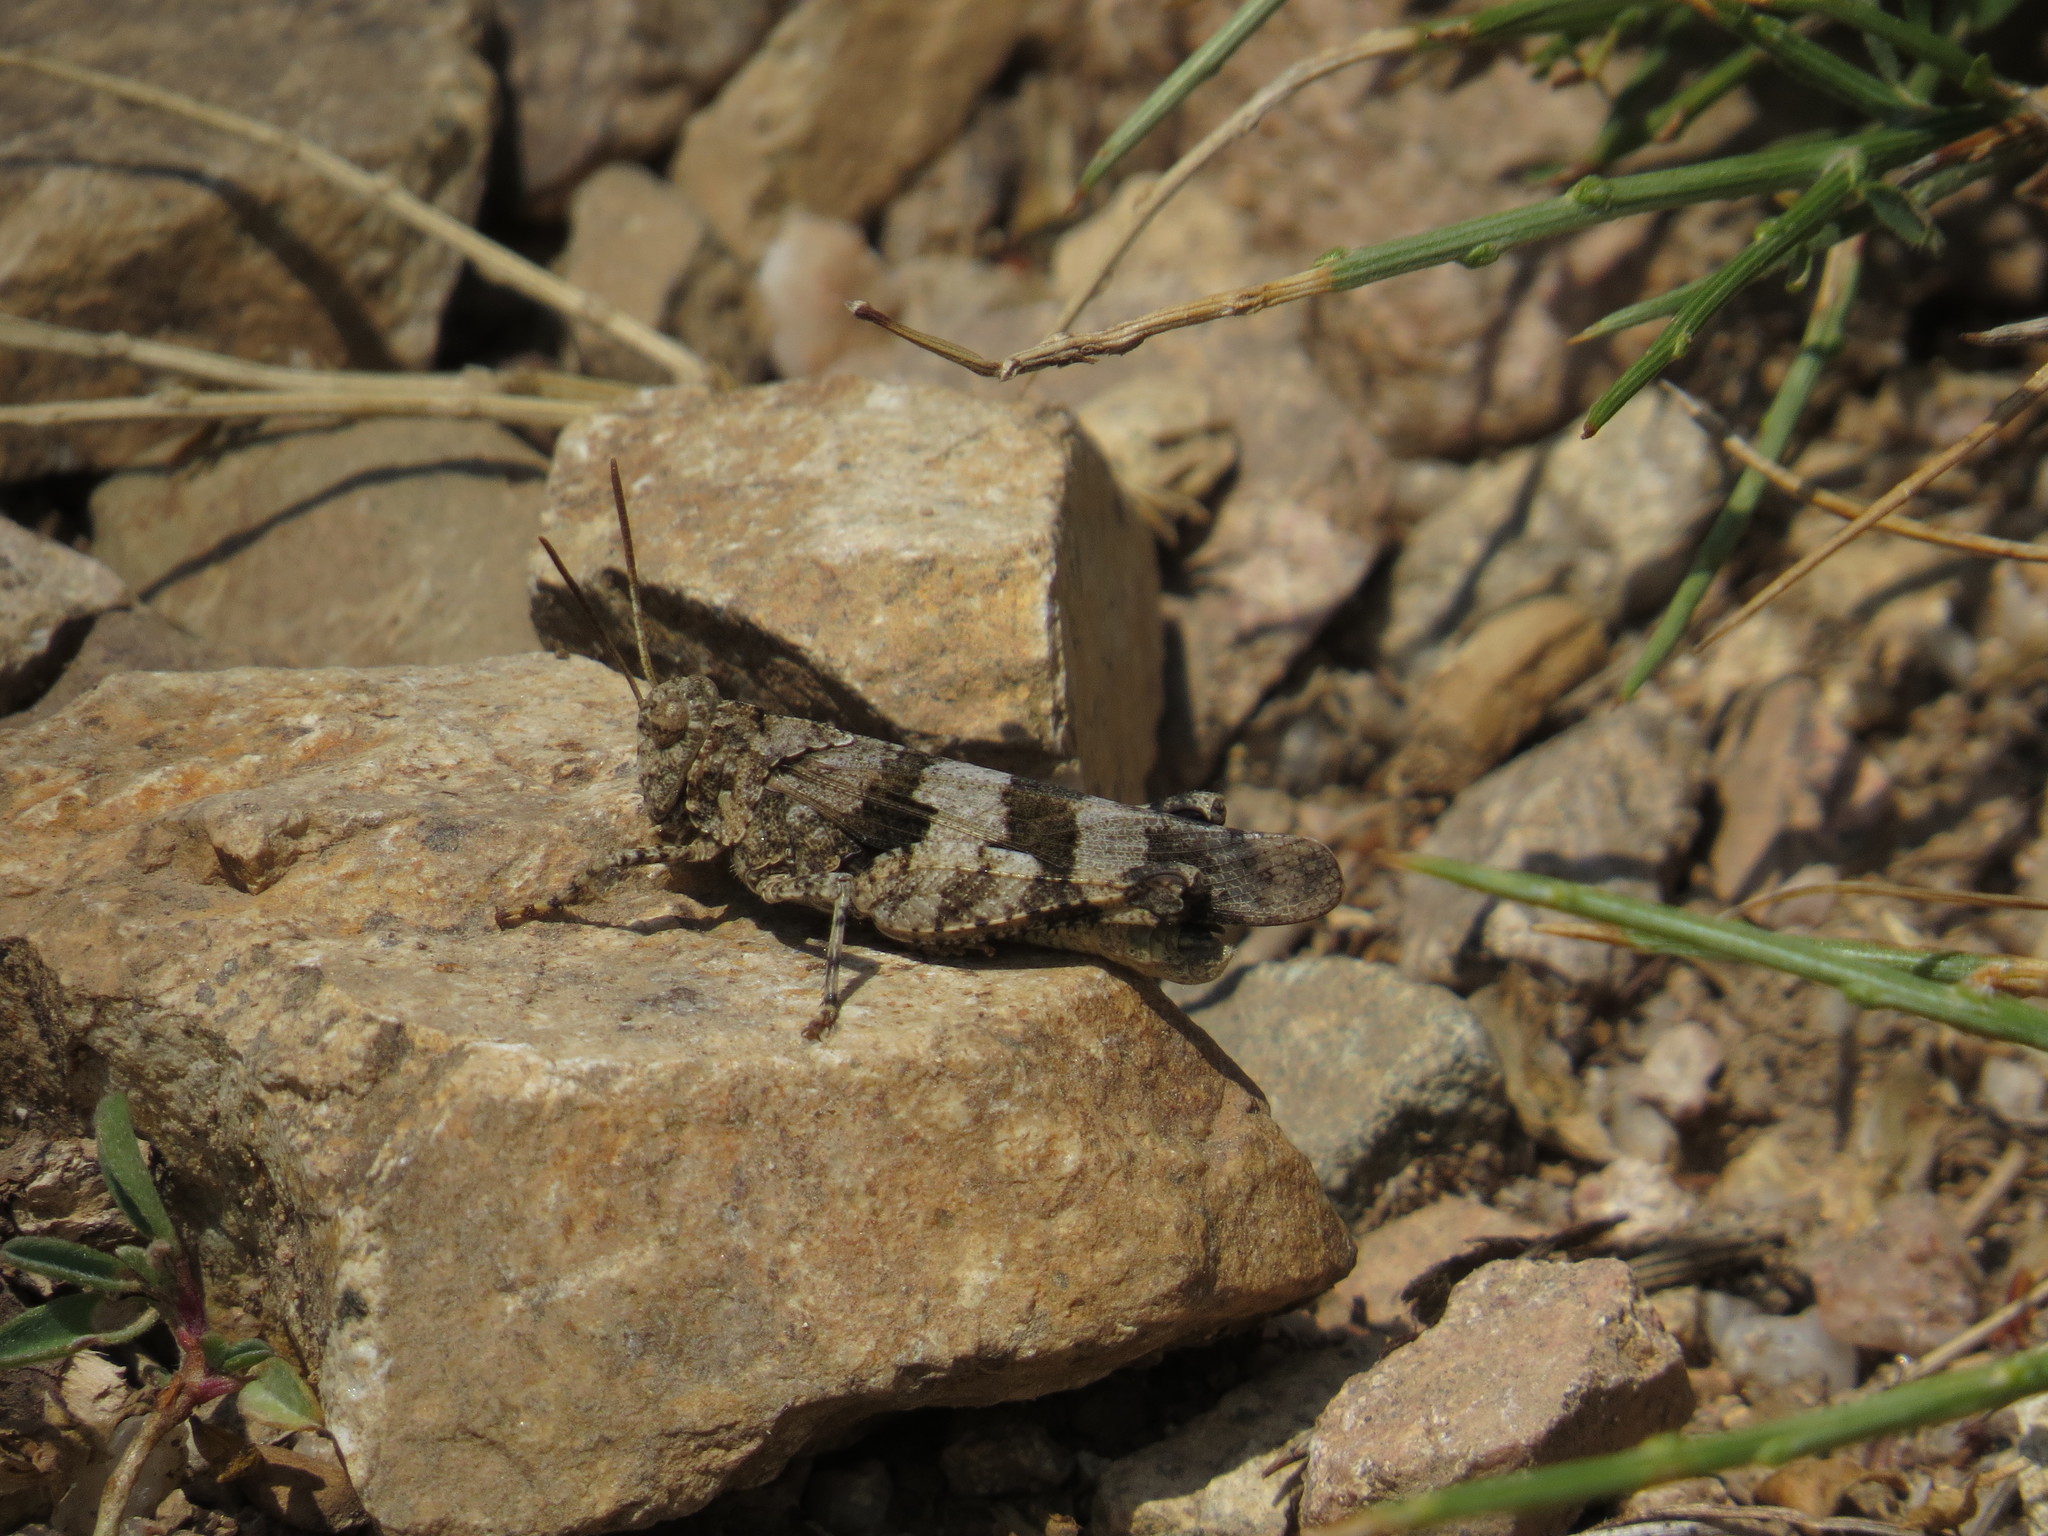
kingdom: Animalia
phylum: Arthropoda
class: Insecta
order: Orthoptera
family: Acrididae
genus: Oedipoda
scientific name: Oedipoda caerulescens
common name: Blue-winged grasshopper
